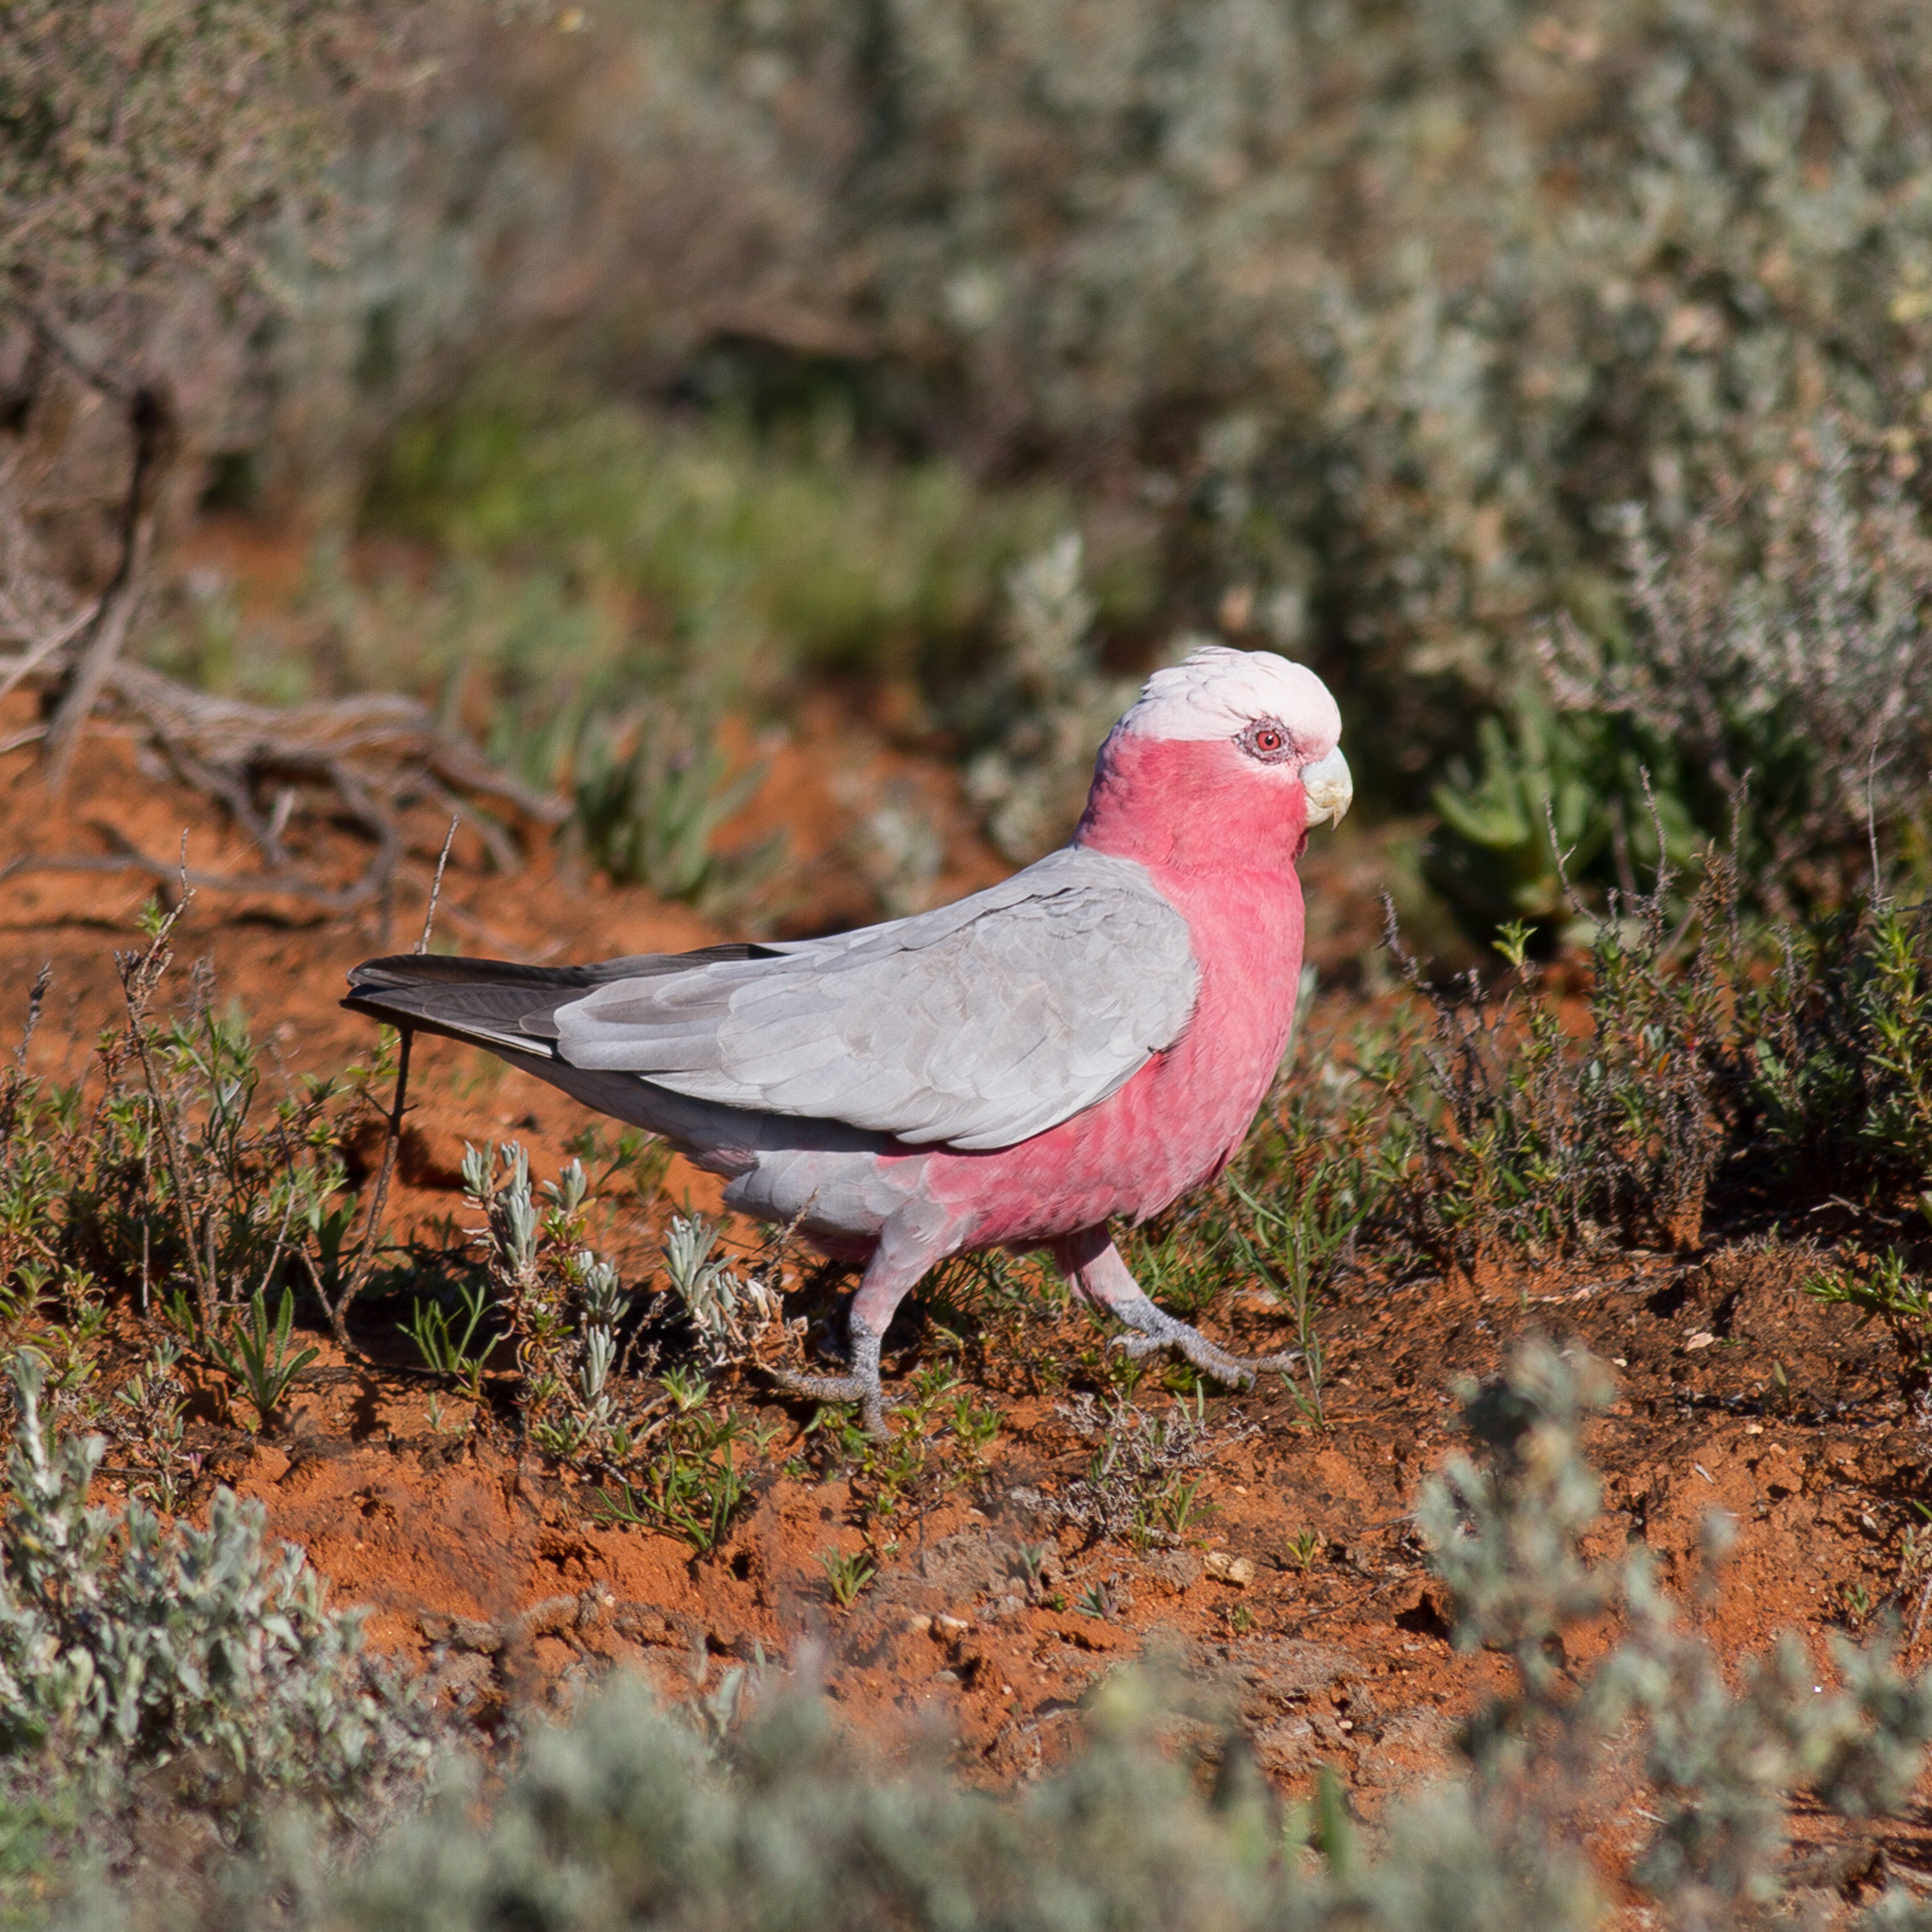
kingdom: Animalia
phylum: Chordata
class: Aves
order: Psittaciformes
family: Psittacidae
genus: Eolophus
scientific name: Eolophus roseicapilla
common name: Galah
